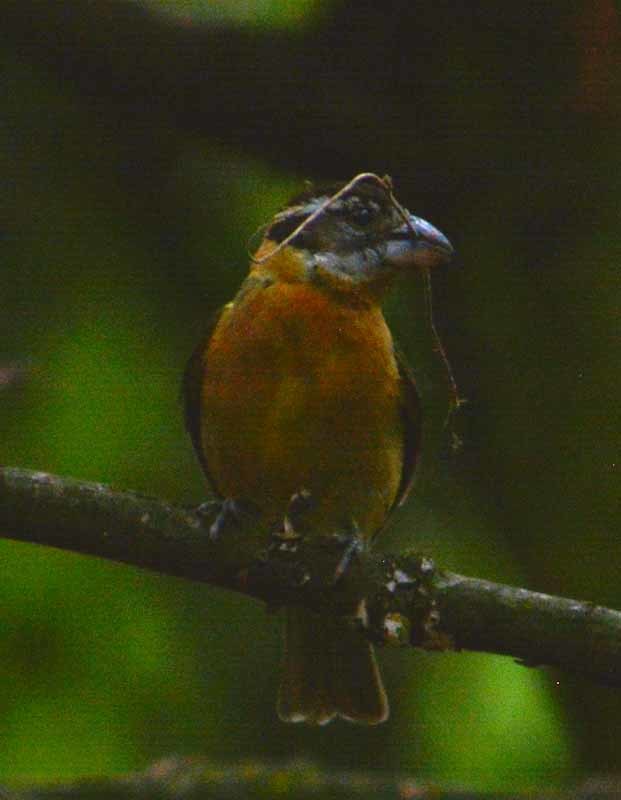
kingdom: Animalia
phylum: Chordata
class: Aves
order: Passeriformes
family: Cardinalidae
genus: Pheucticus
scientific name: Pheucticus melanocephalus
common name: Black-headed grosbeak
